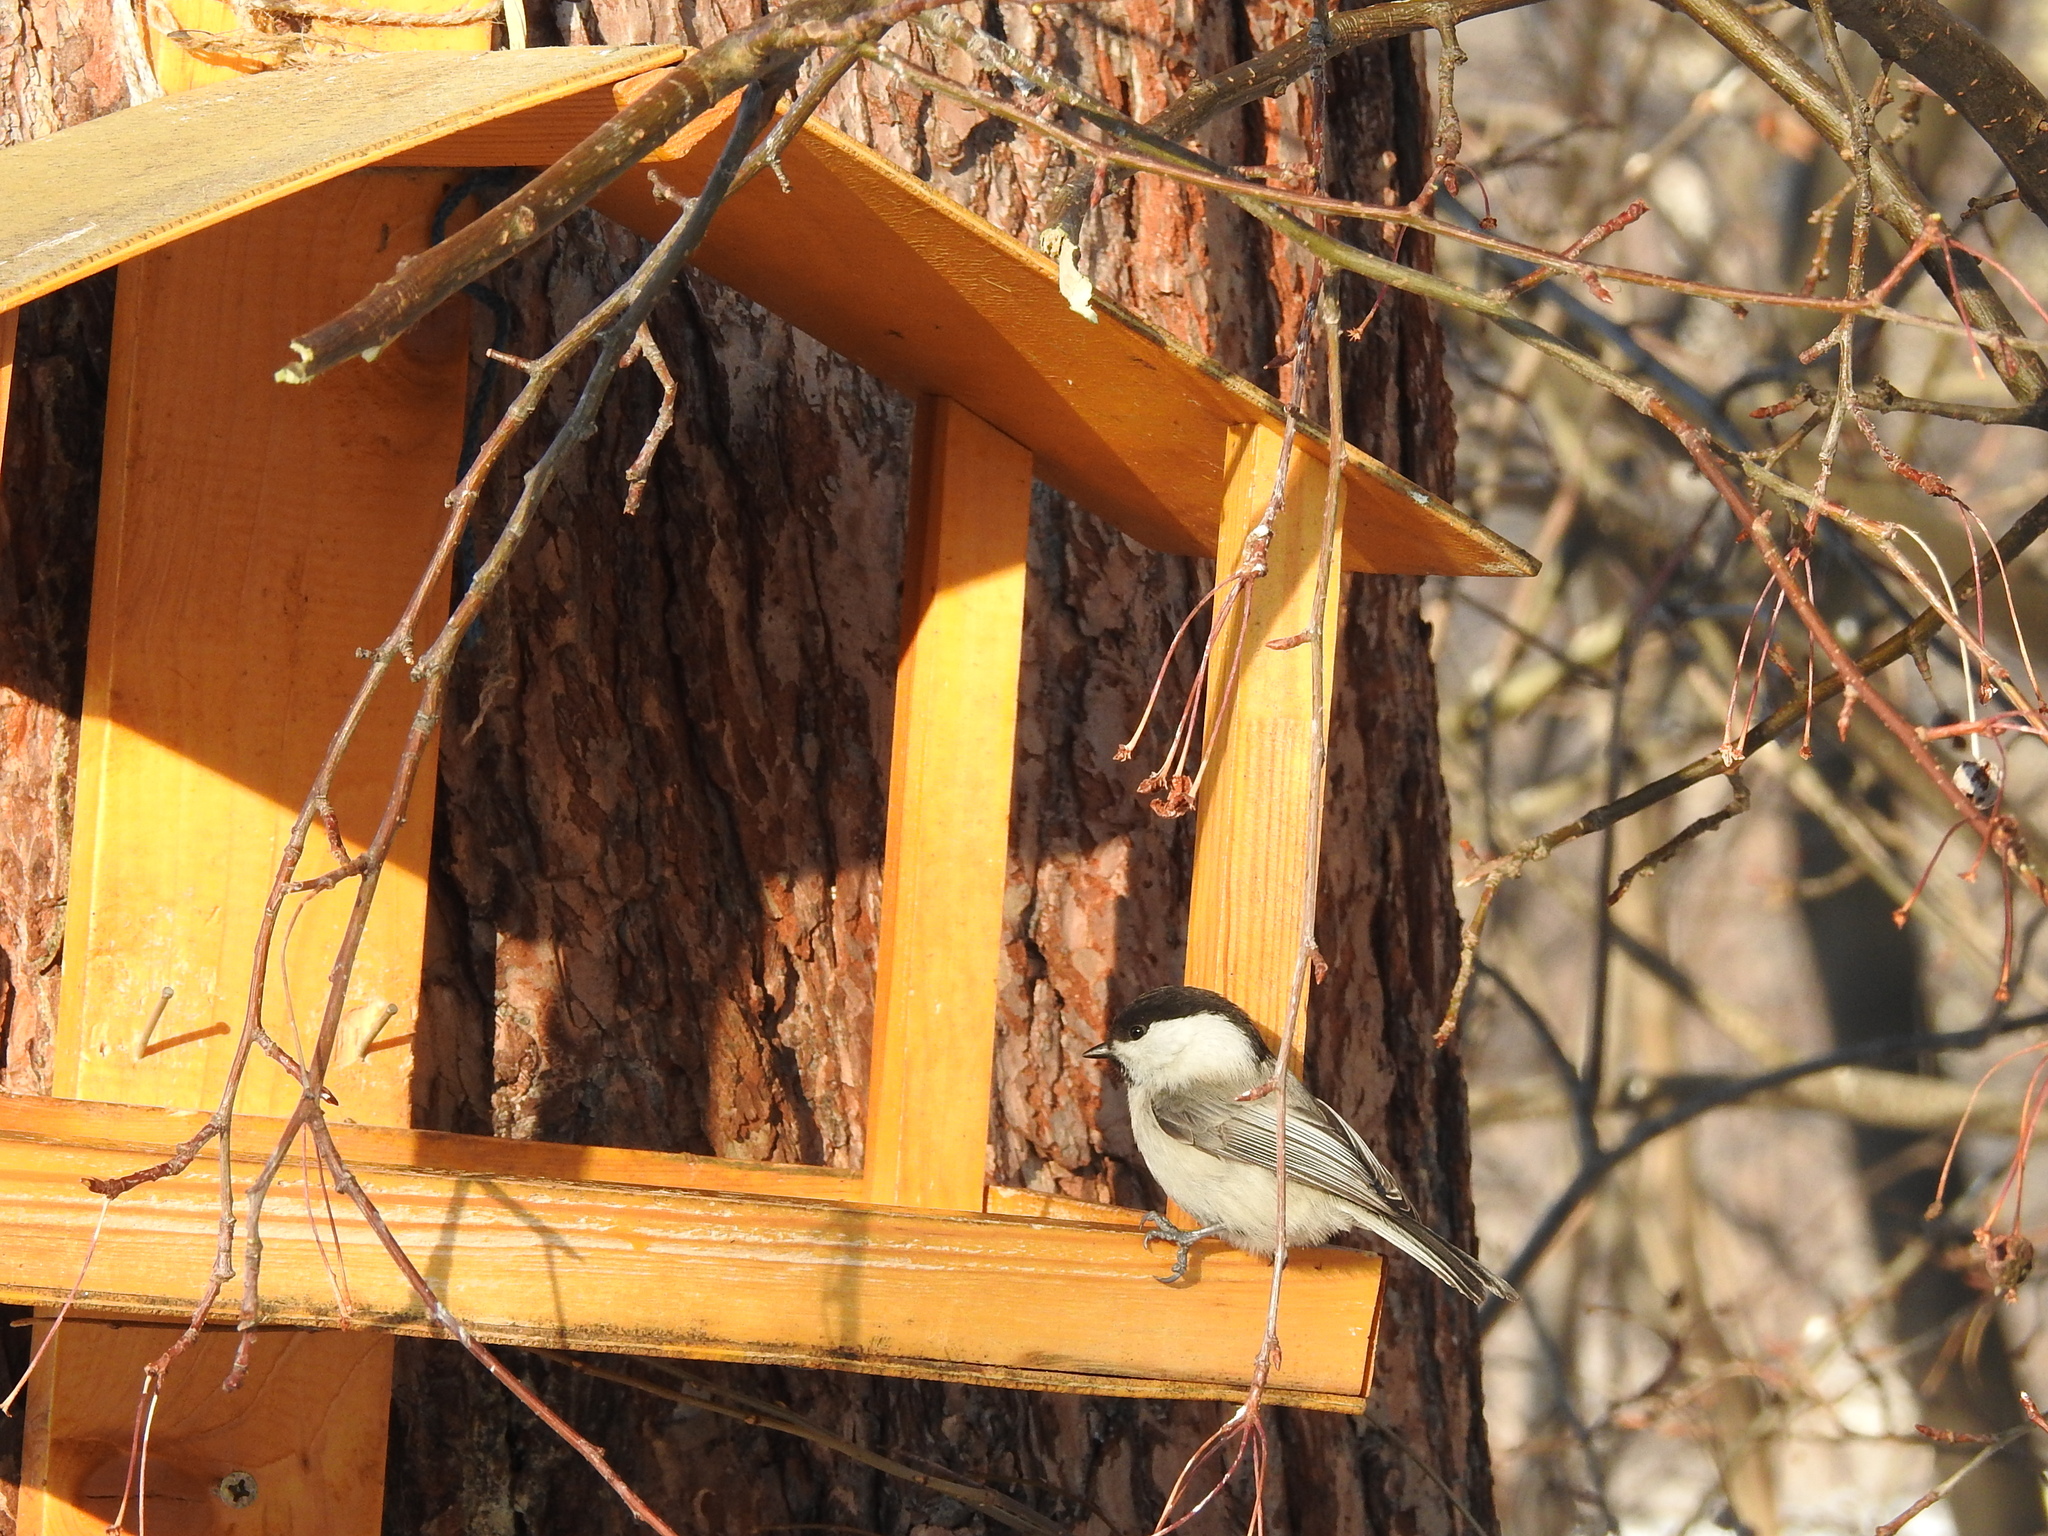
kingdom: Animalia
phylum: Chordata
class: Aves
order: Passeriformes
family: Paridae
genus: Poecile
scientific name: Poecile montanus
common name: Willow tit
